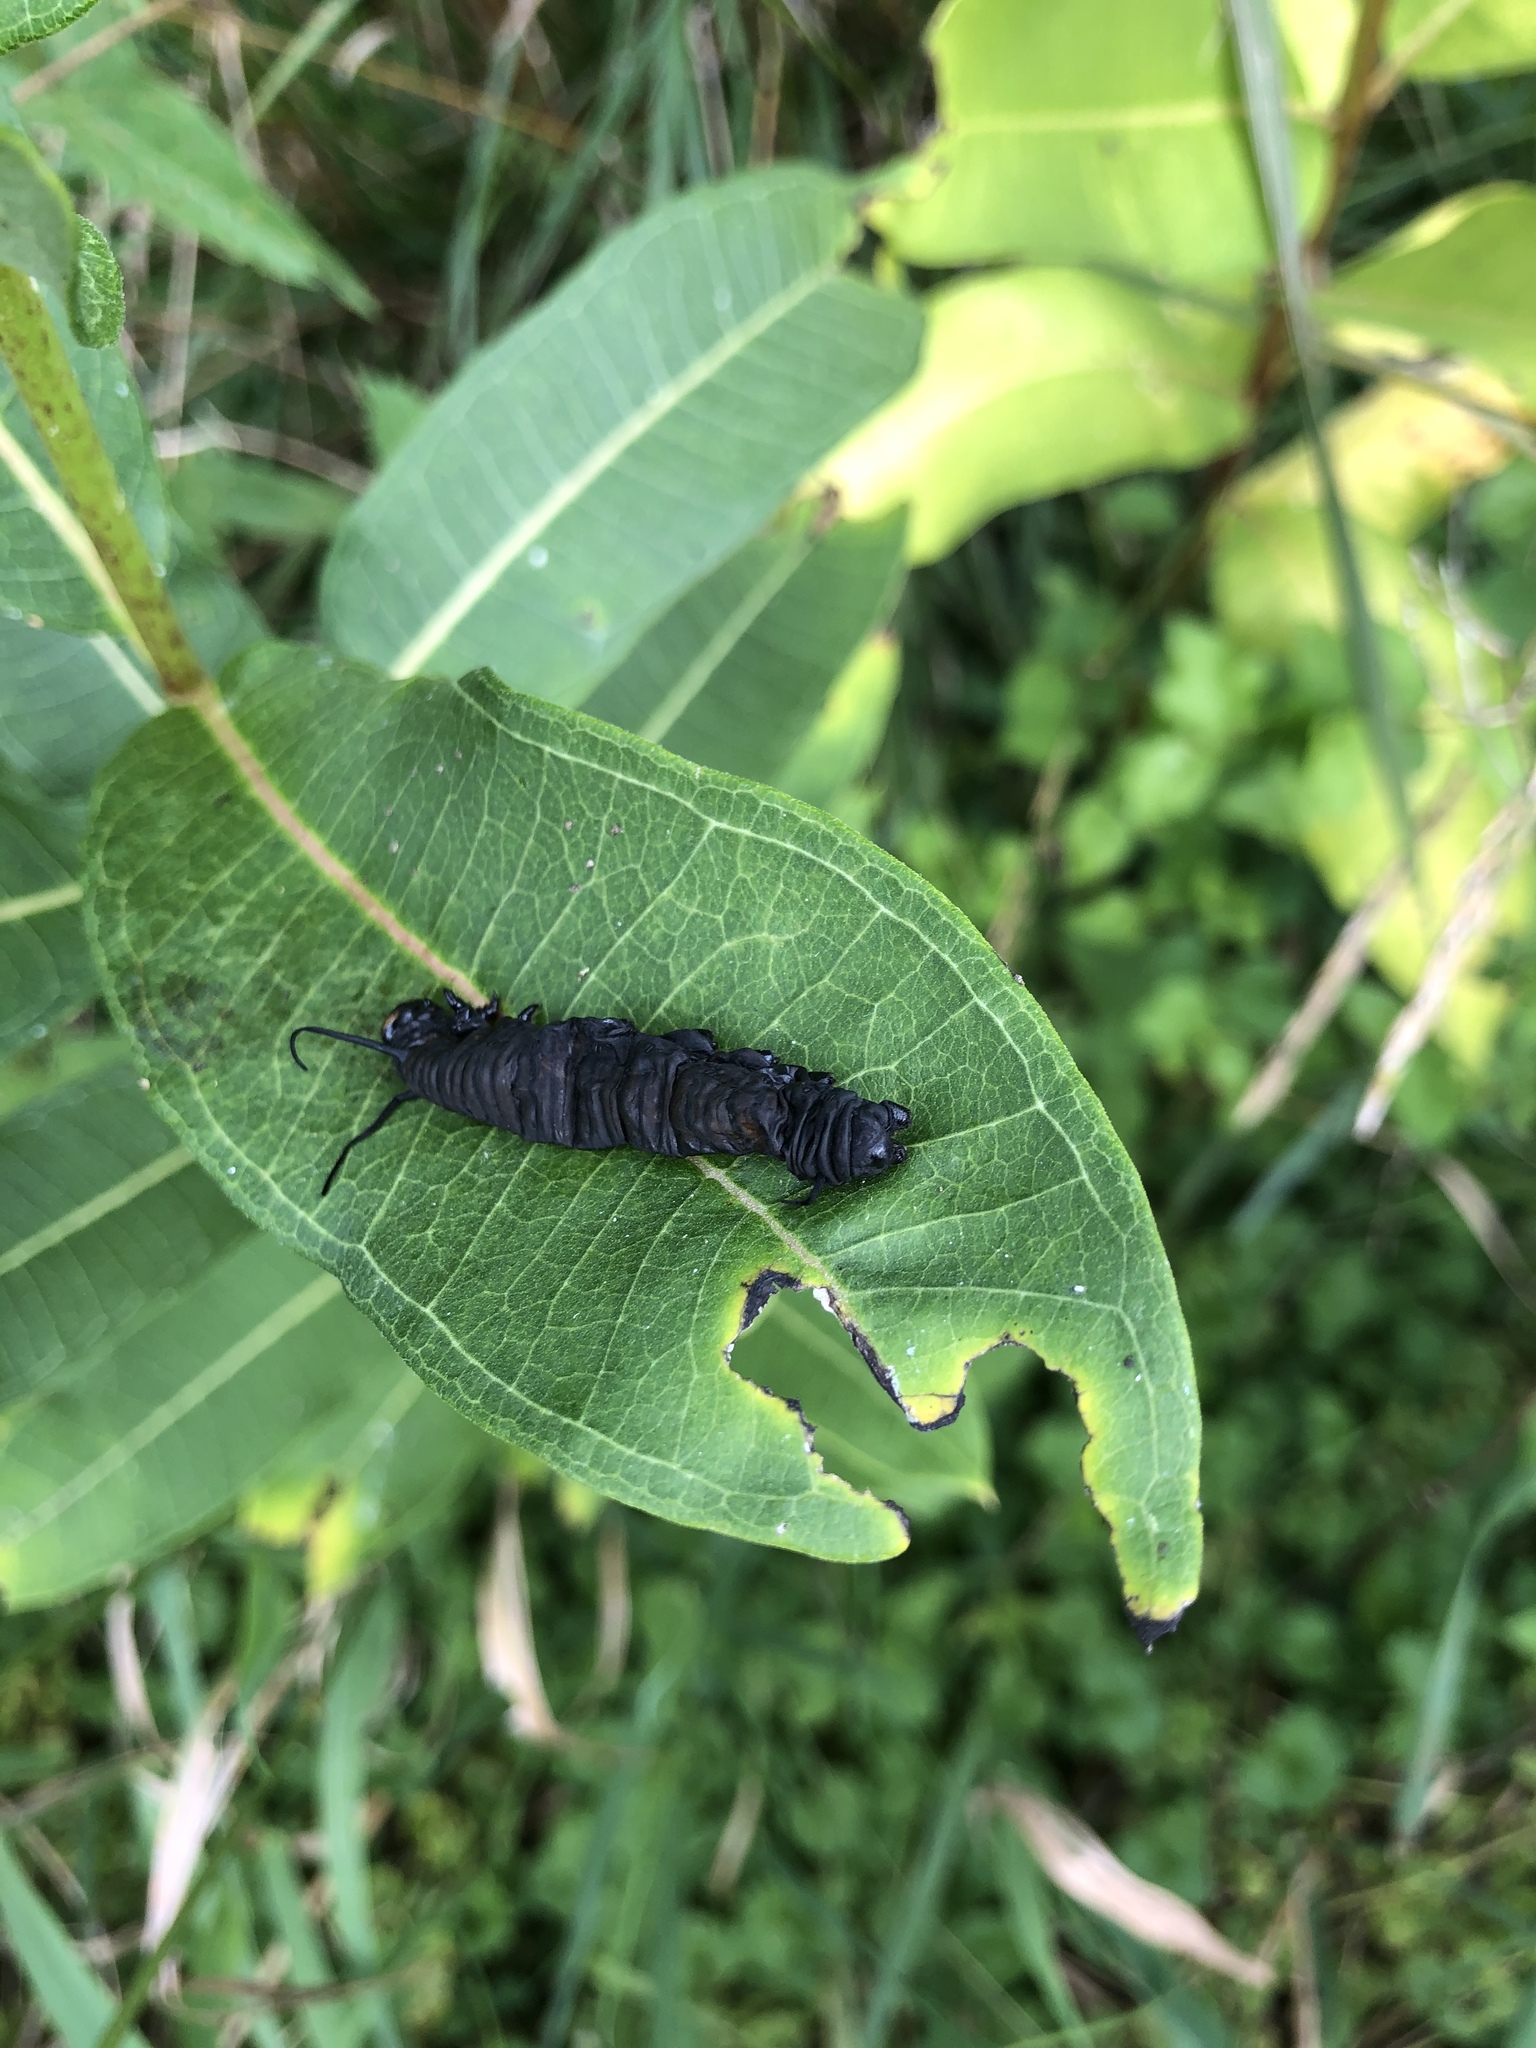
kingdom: Animalia
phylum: Arthropoda
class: Insecta
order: Lepidoptera
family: Nymphalidae
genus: Danaus
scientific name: Danaus plexippus
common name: Monarch
